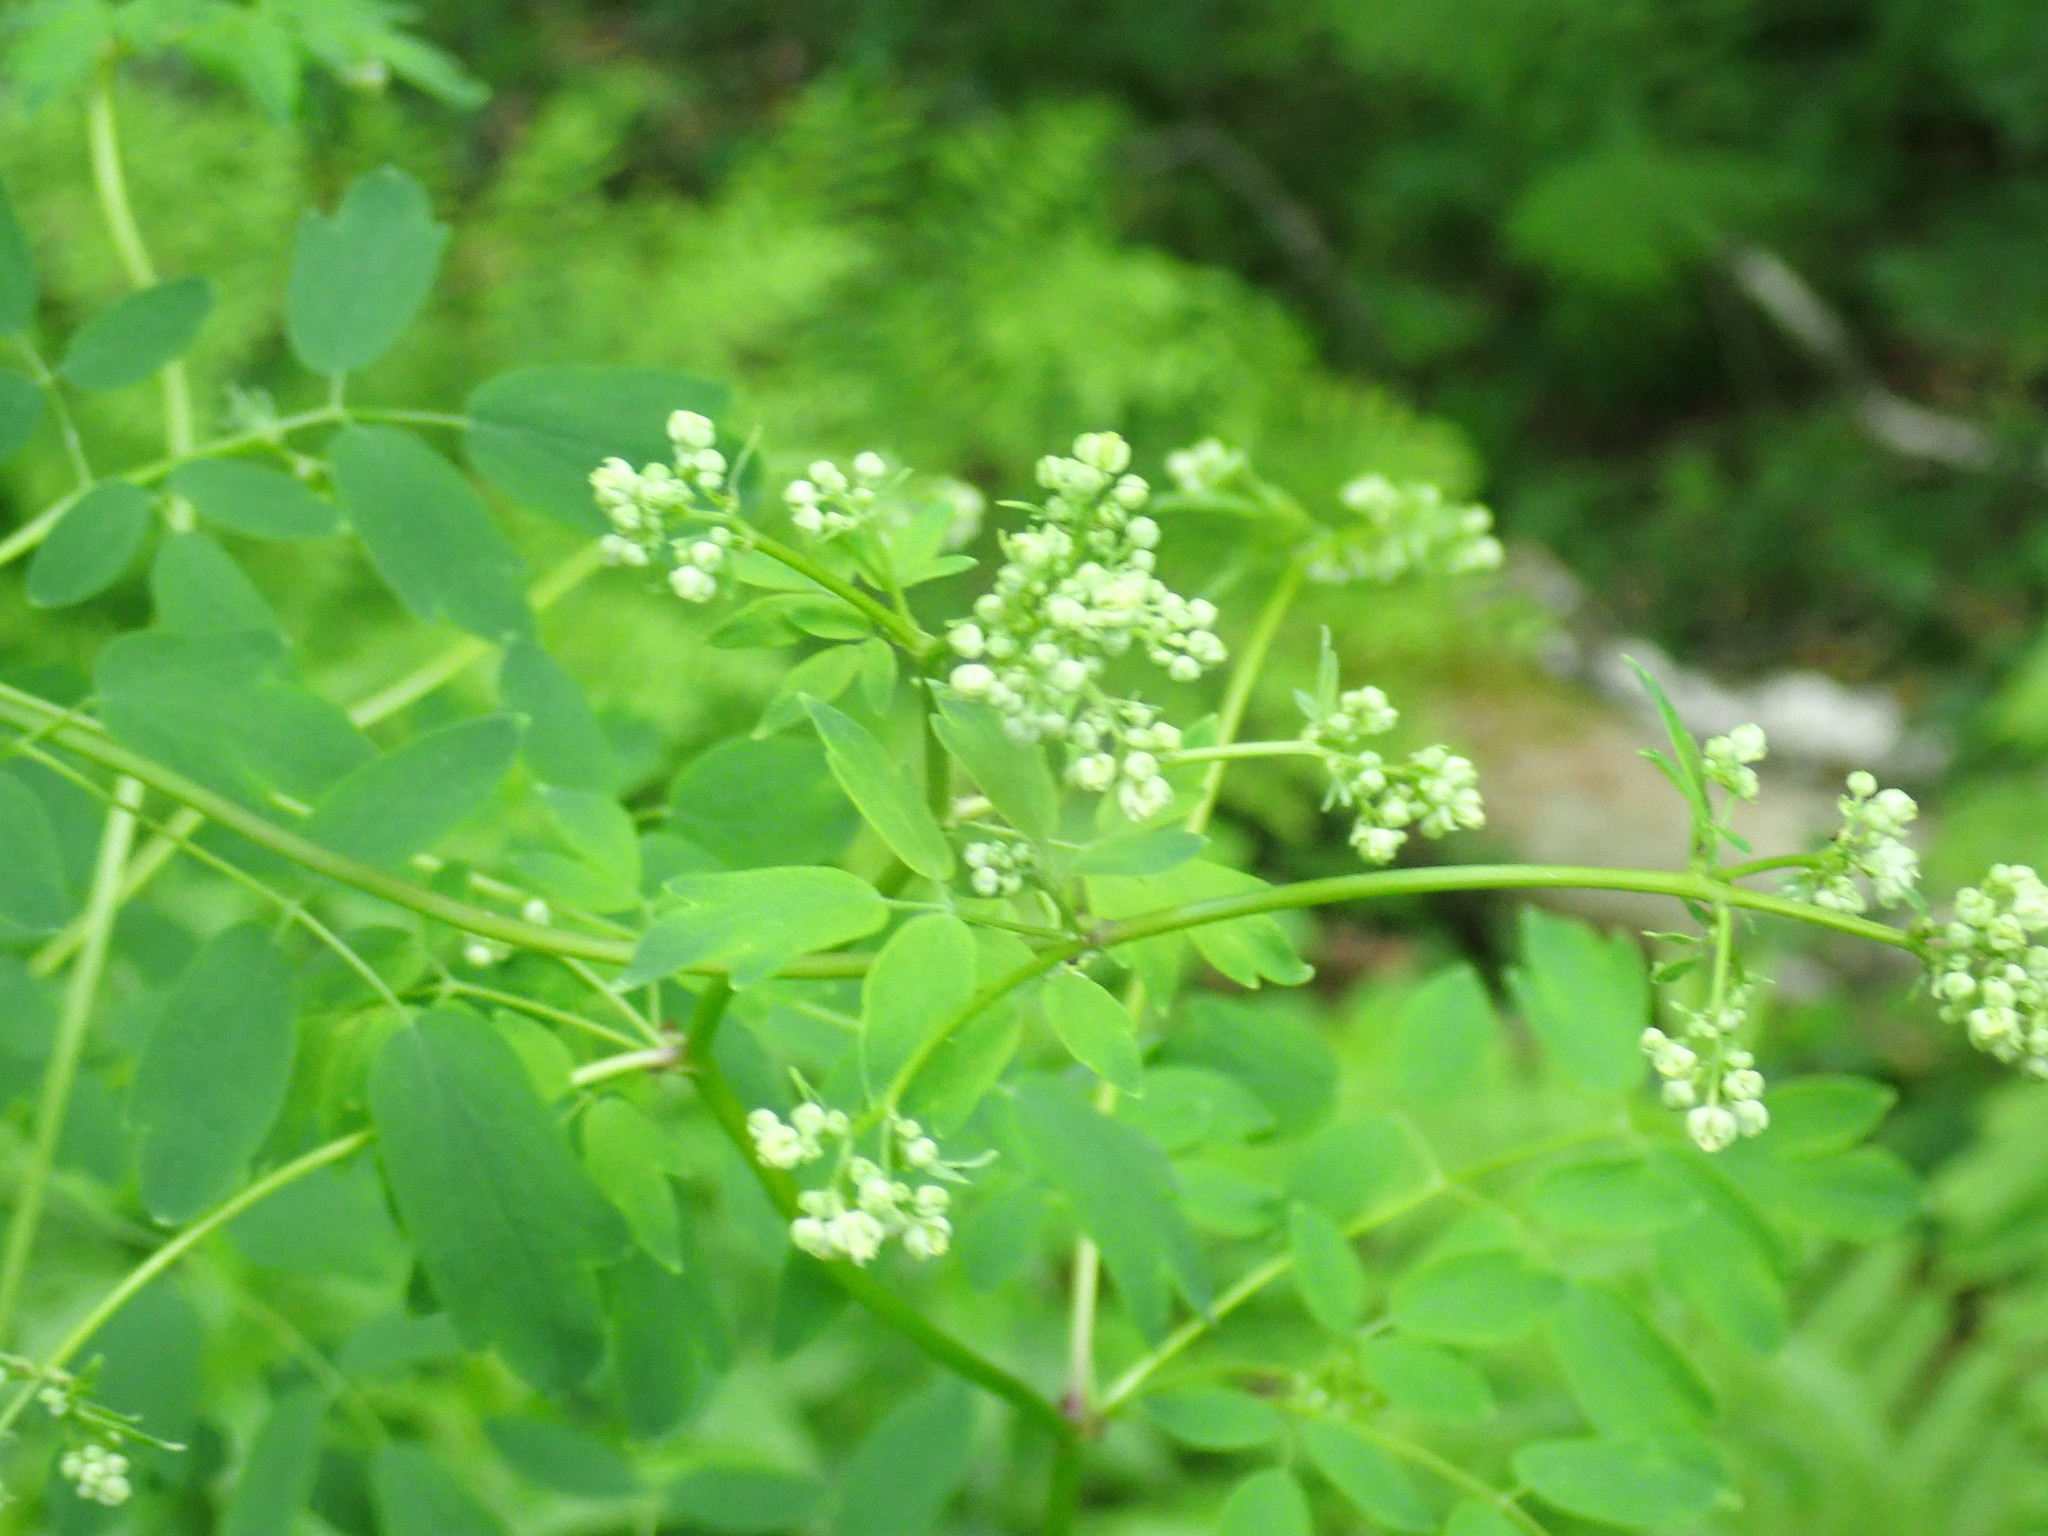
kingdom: Plantae
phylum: Tracheophyta
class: Magnoliopsida
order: Ranunculales
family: Ranunculaceae
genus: Thalictrum
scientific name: Thalictrum pubescens
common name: King-of-the-meadow
